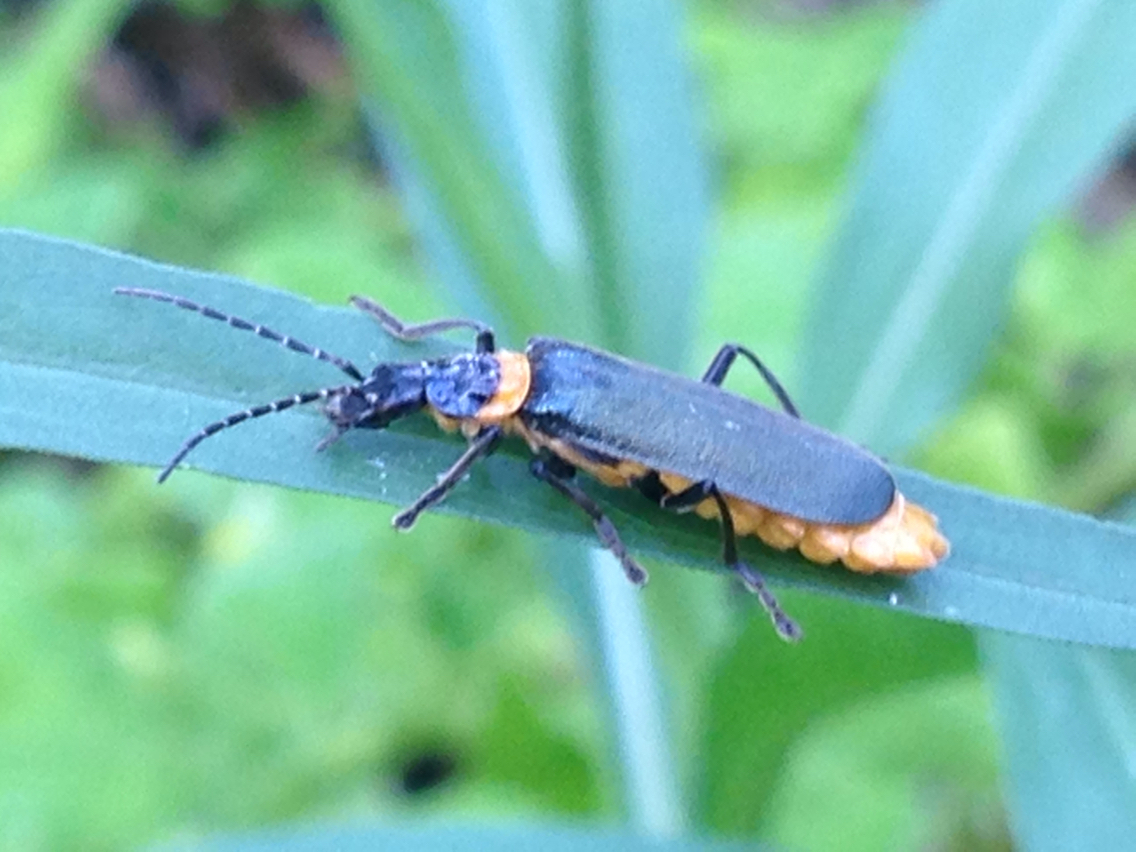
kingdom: Animalia
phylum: Arthropoda
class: Insecta
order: Coleoptera
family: Cantharidae
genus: Chauliognathus
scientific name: Chauliognathus
